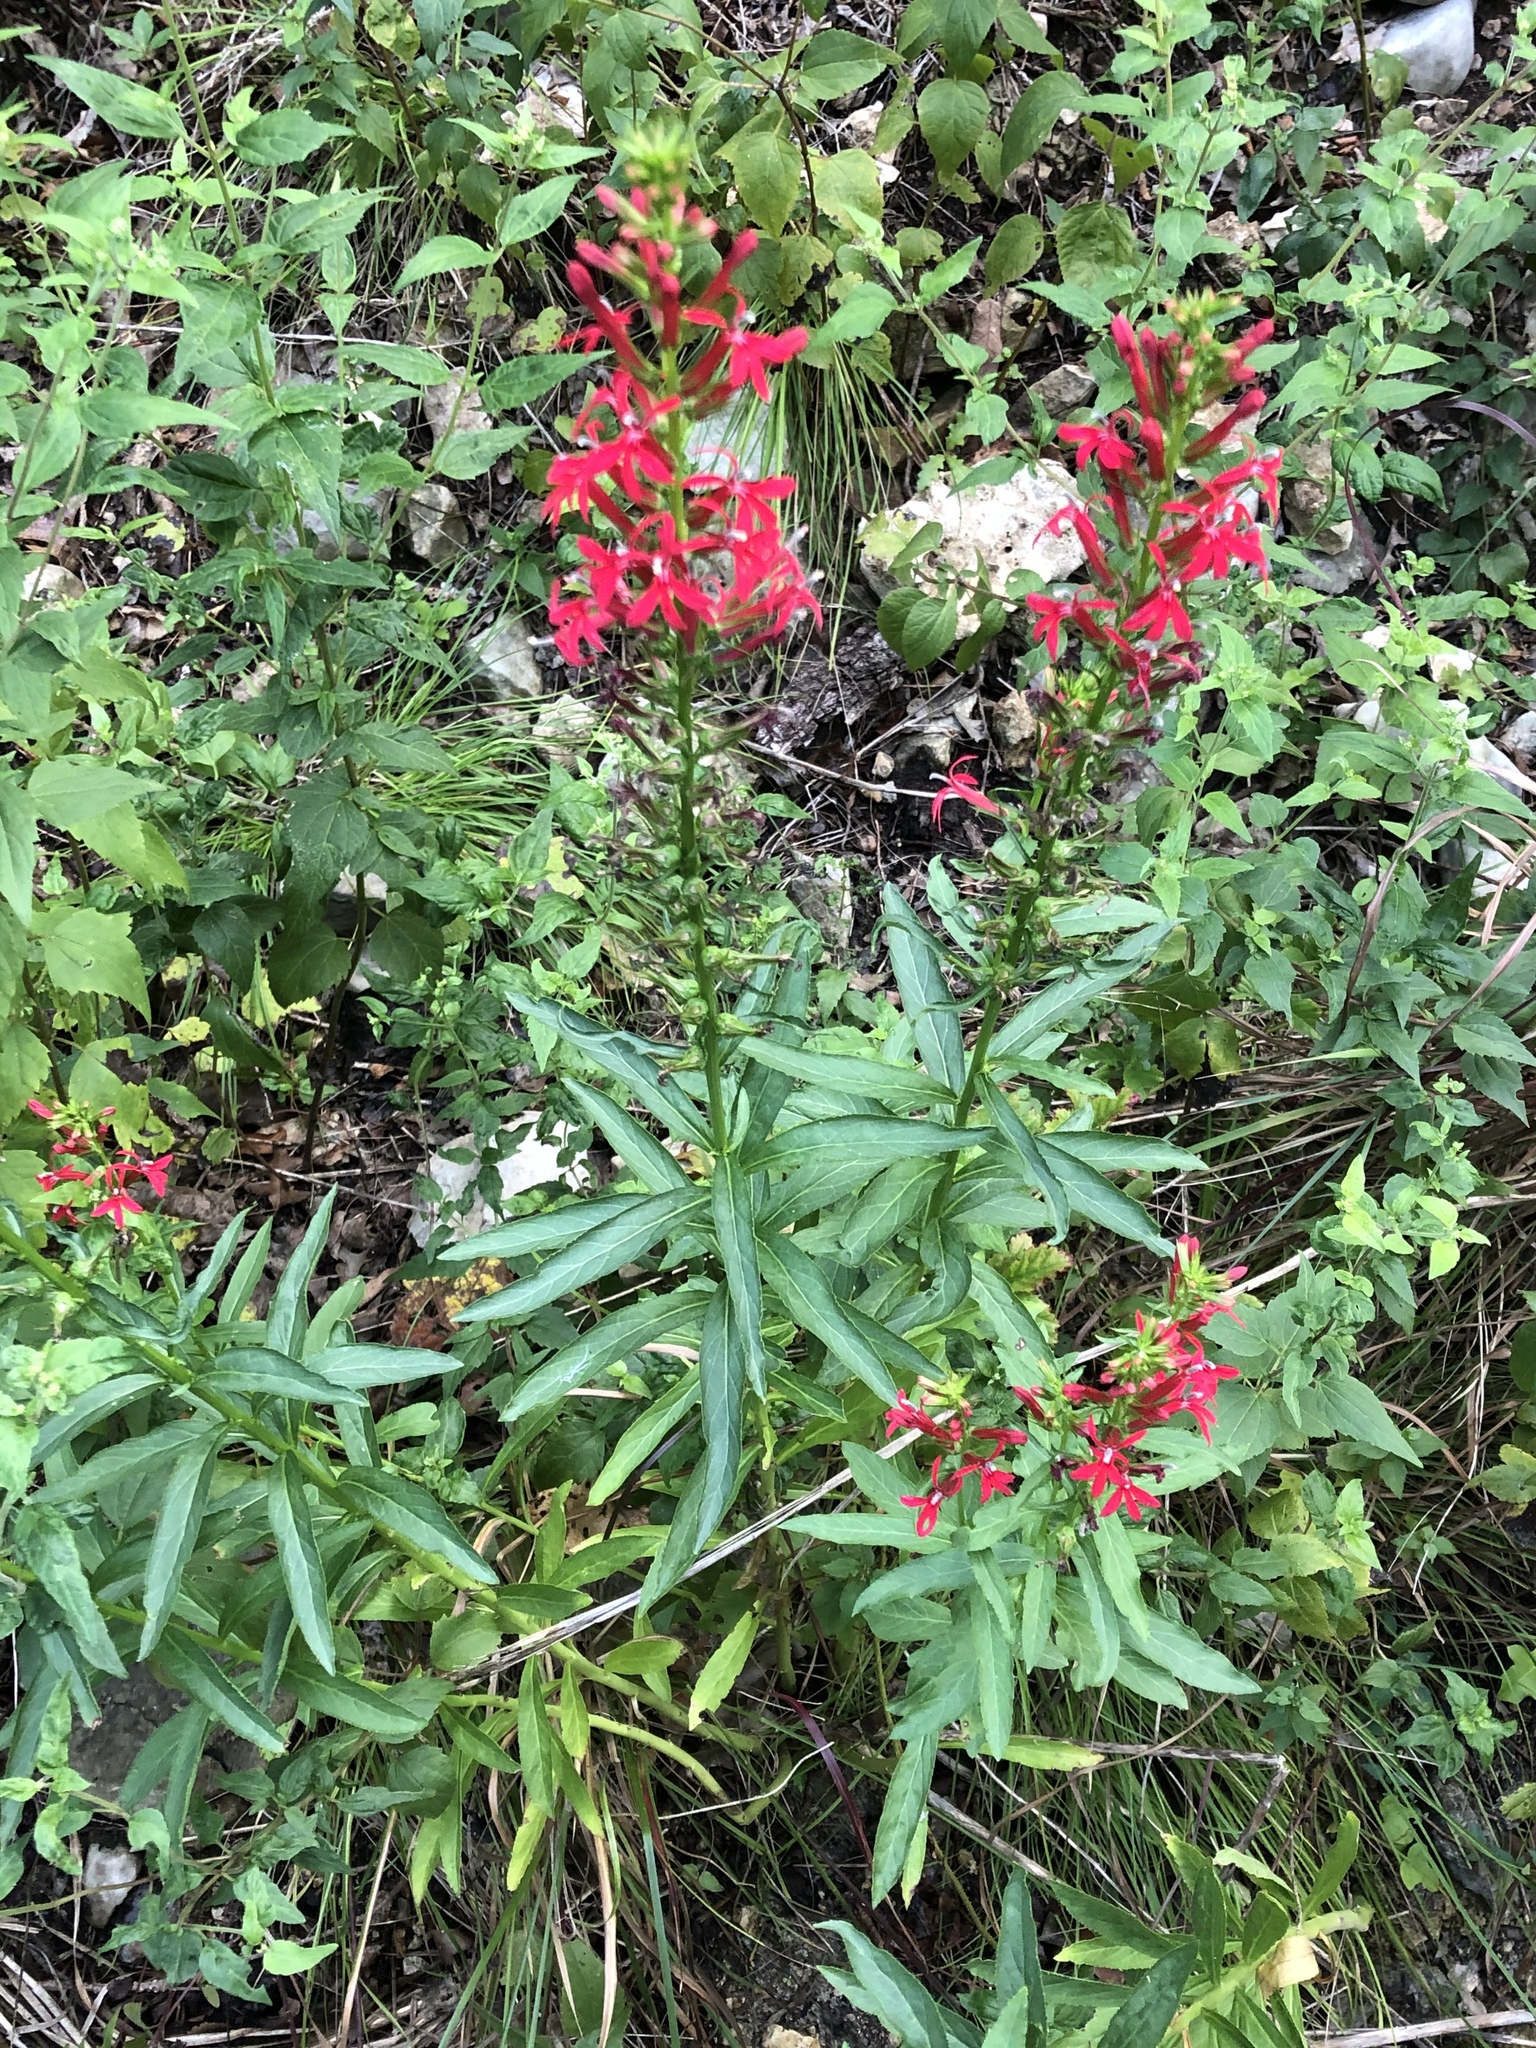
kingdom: Plantae
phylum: Tracheophyta
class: Magnoliopsida
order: Asterales
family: Campanulaceae
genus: Lobelia
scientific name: Lobelia cardinalis
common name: Cardinal flower
